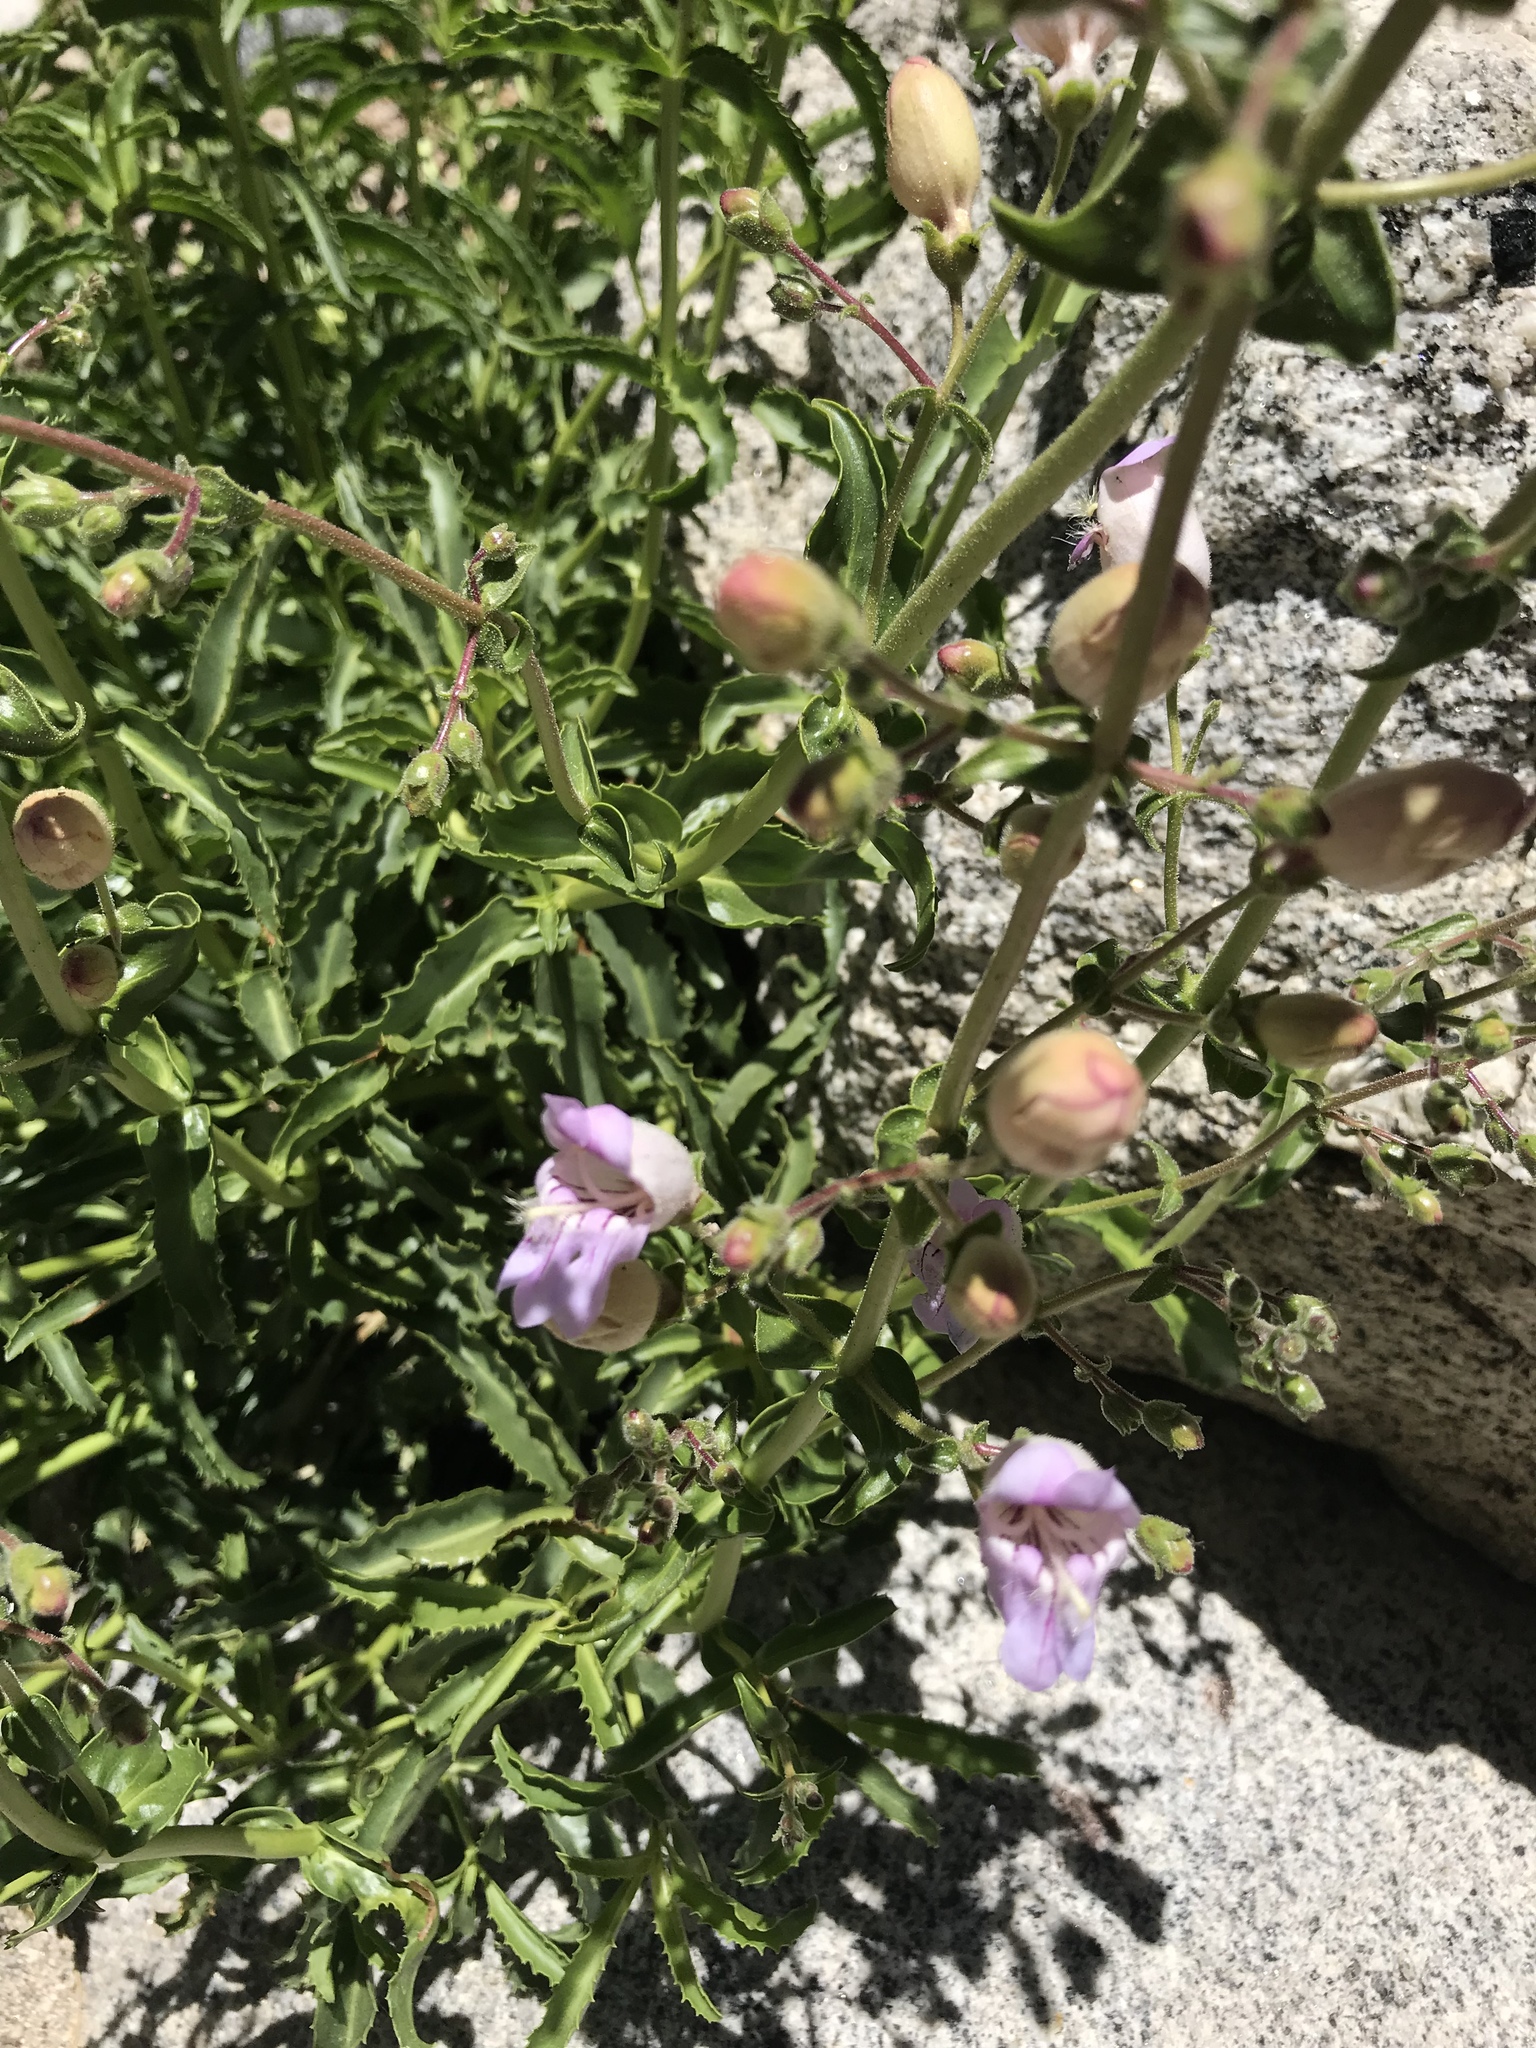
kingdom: Plantae
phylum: Tracheophyta
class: Magnoliopsida
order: Lamiales
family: Plantaginaceae
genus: Penstemon
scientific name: Penstemon grinnellii
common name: Grinnell's beardtongue
